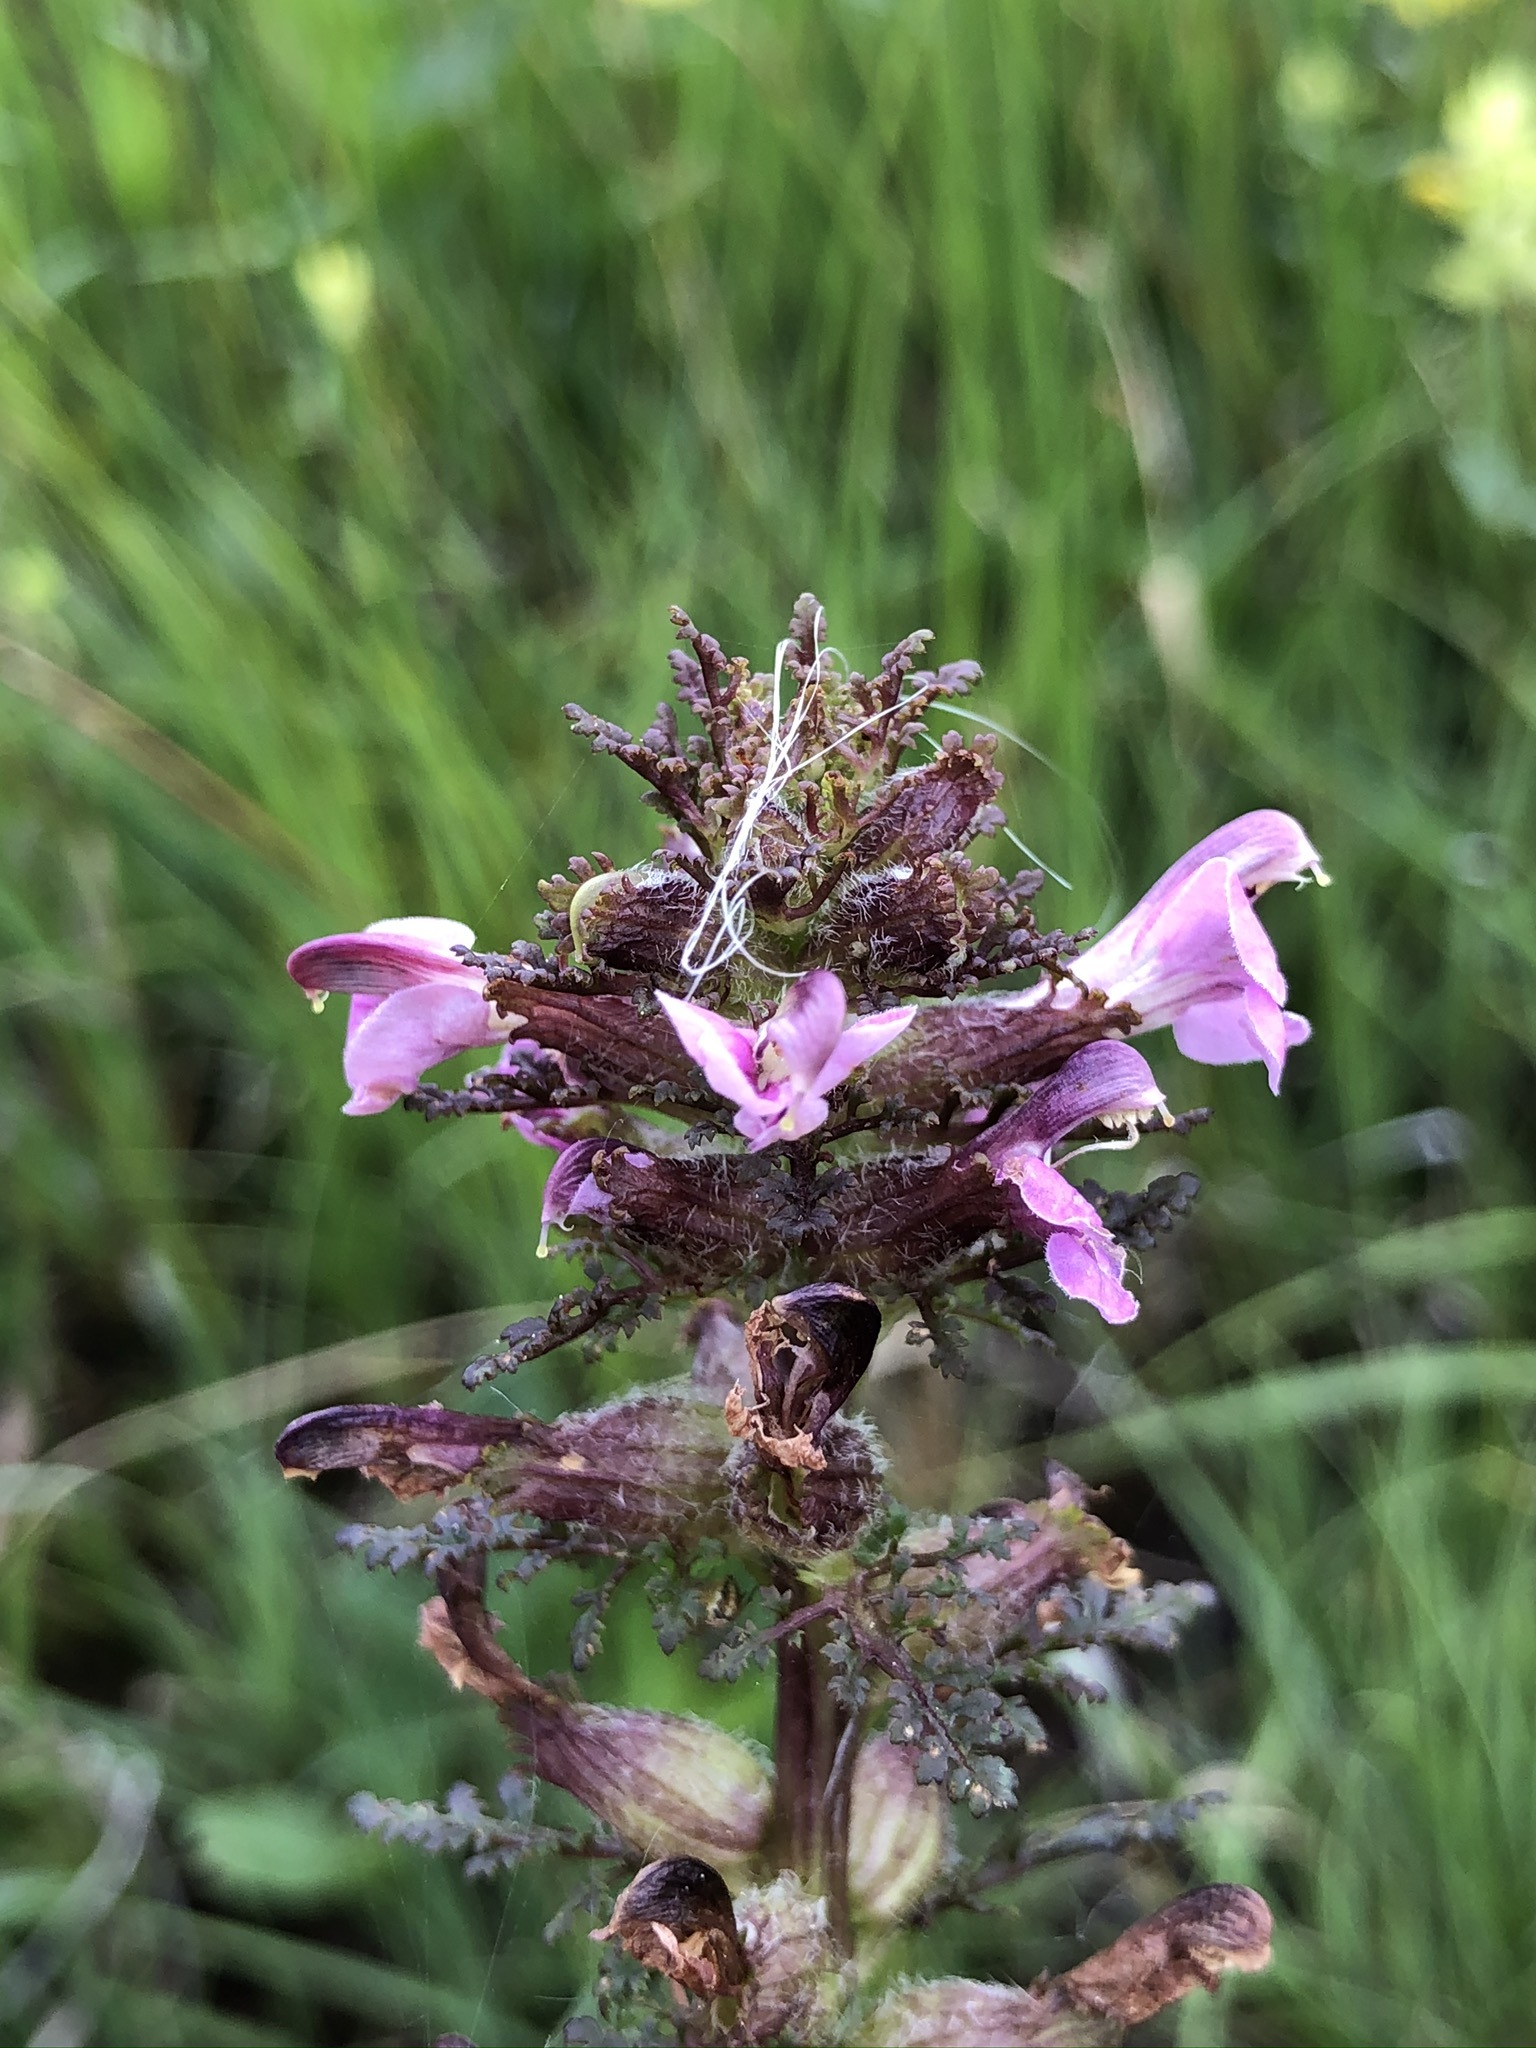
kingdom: Plantae
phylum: Tracheophyta
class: Magnoliopsida
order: Lamiales
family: Orobanchaceae
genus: Pedicularis
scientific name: Pedicularis palustris
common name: Marsh lousewort
